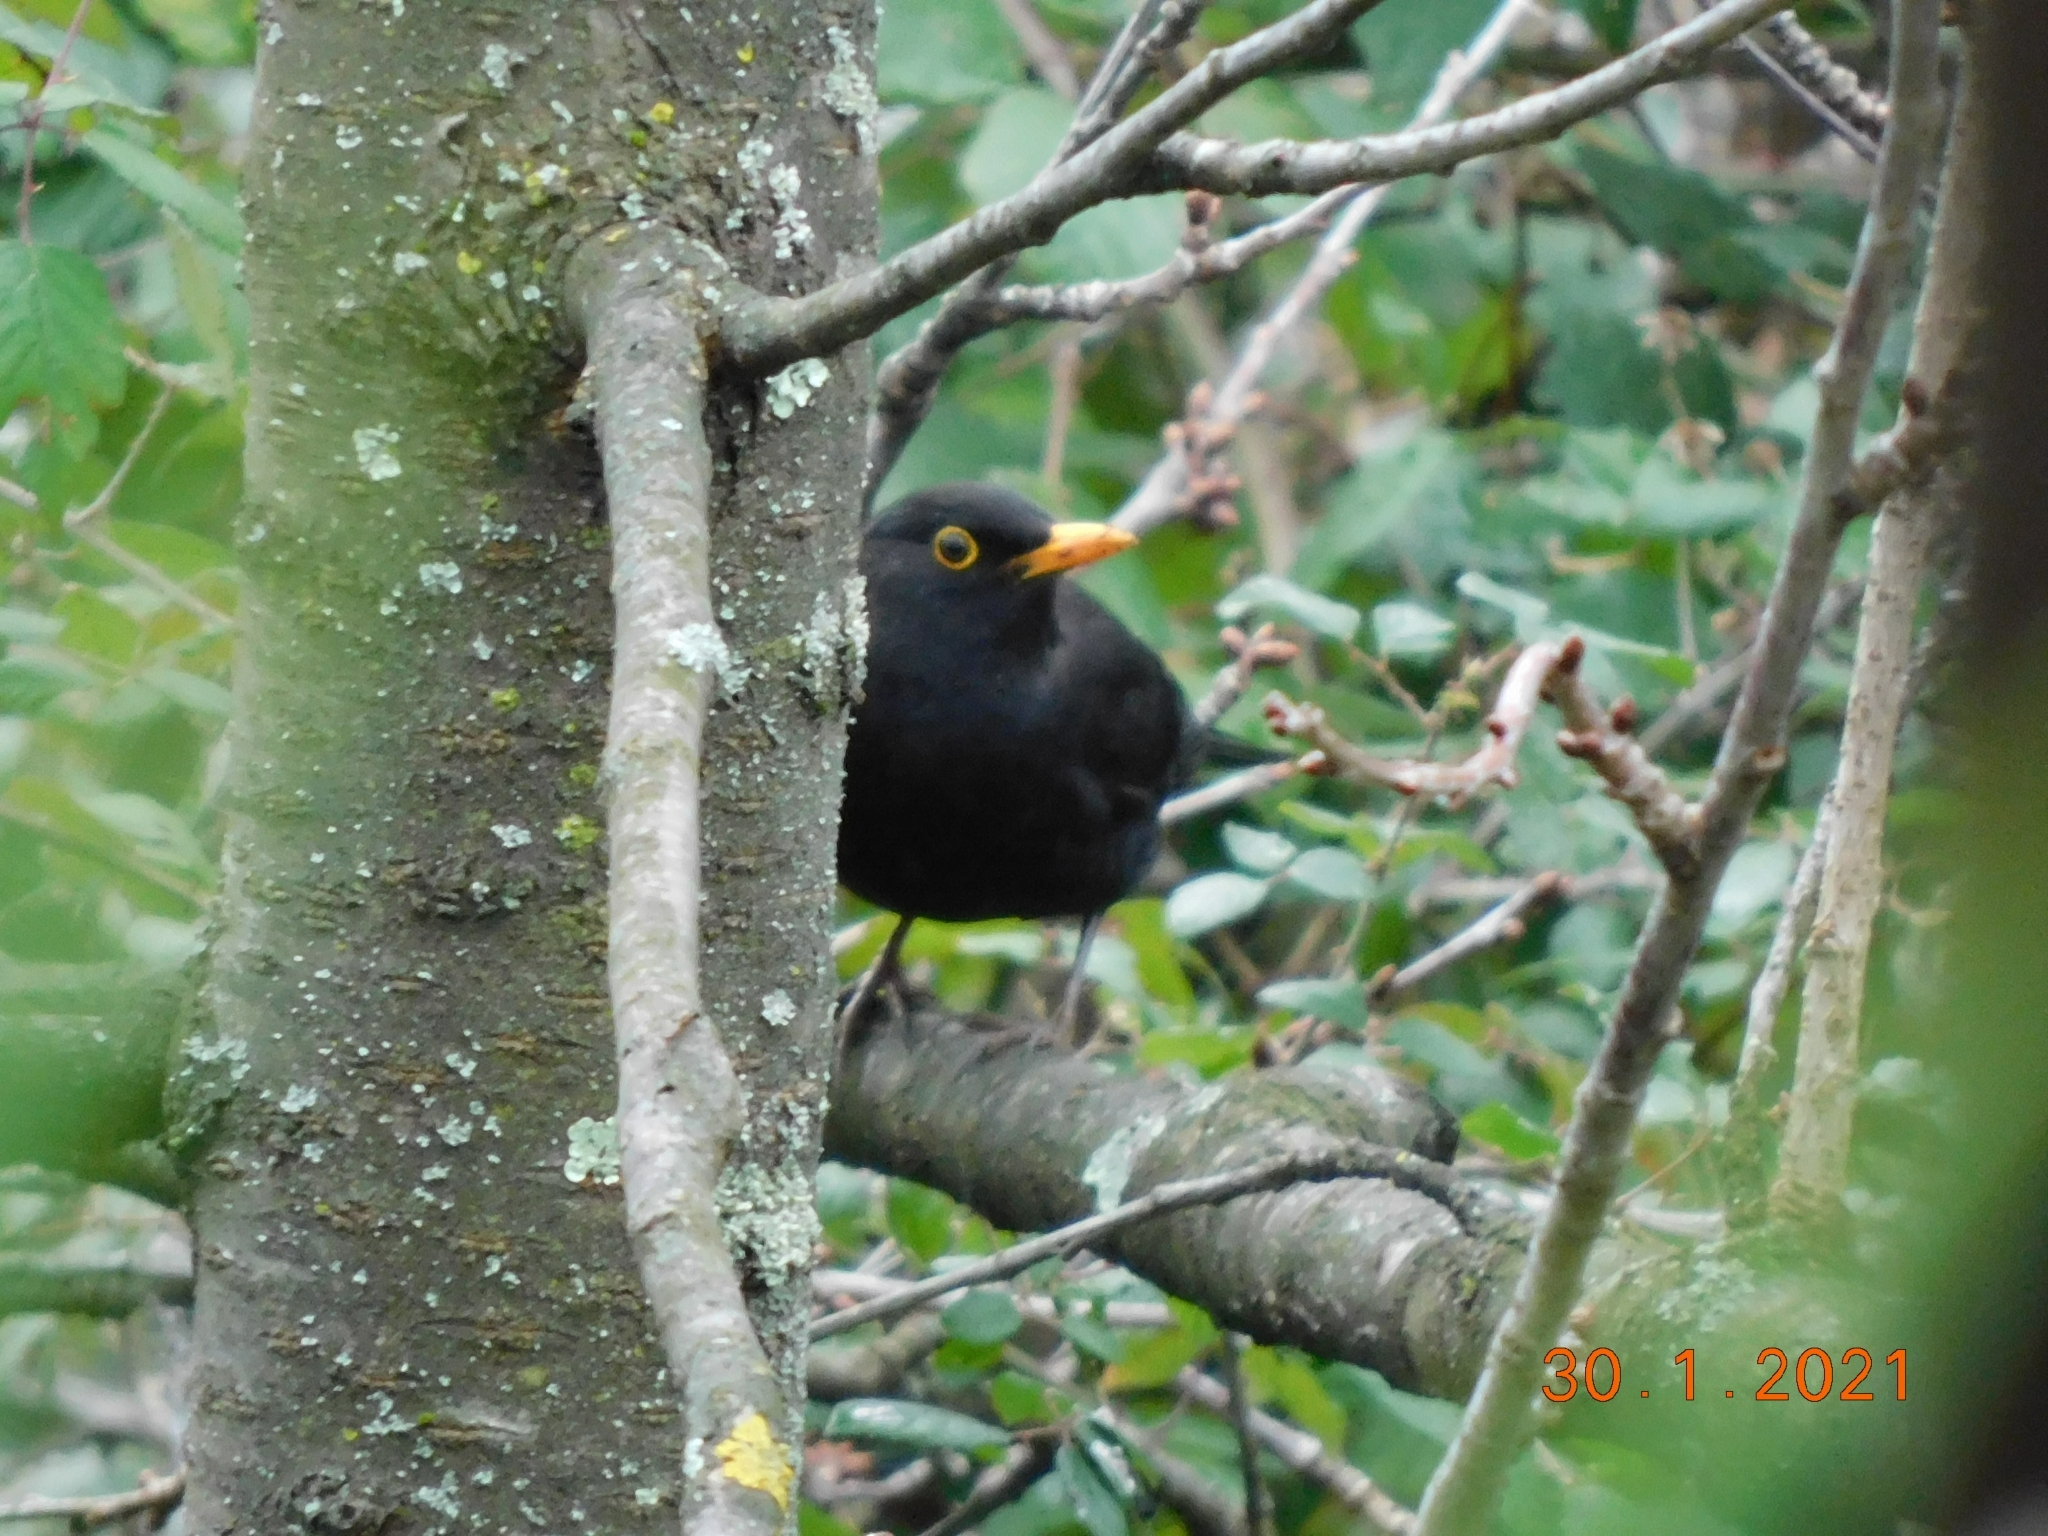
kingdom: Animalia
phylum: Chordata
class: Aves
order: Passeriformes
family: Turdidae
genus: Turdus
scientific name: Turdus merula
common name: Common blackbird
